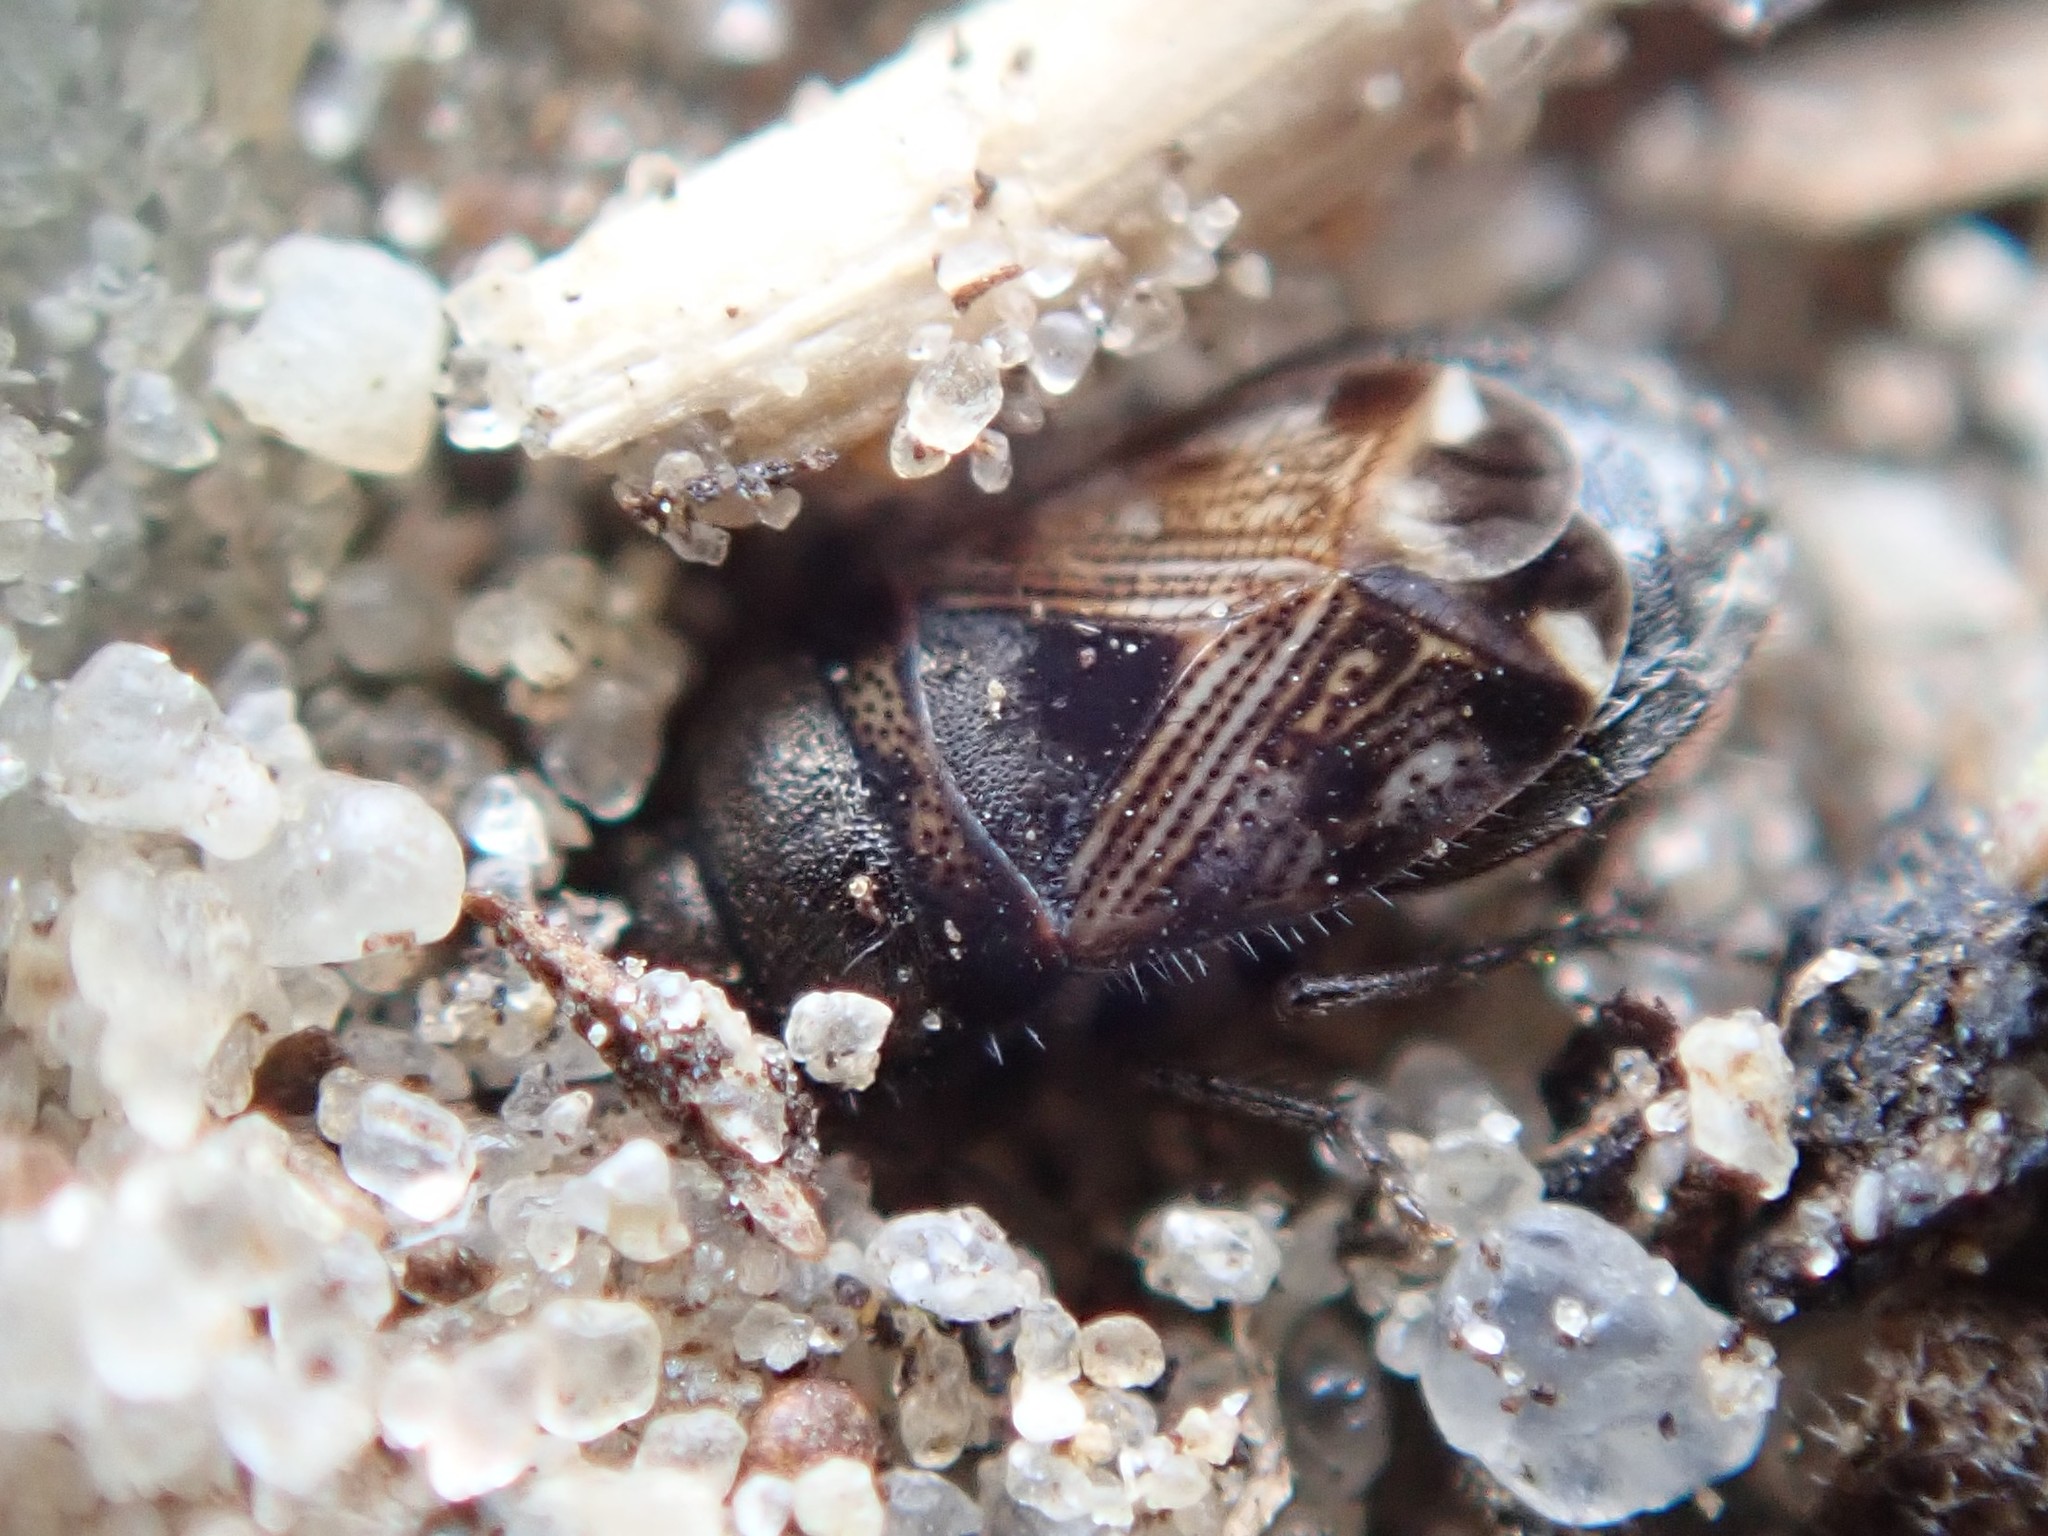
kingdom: Animalia
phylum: Arthropoda
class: Insecta
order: Hemiptera
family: Rhyparochromidae
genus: Pionosomus
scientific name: Pionosomus varius
